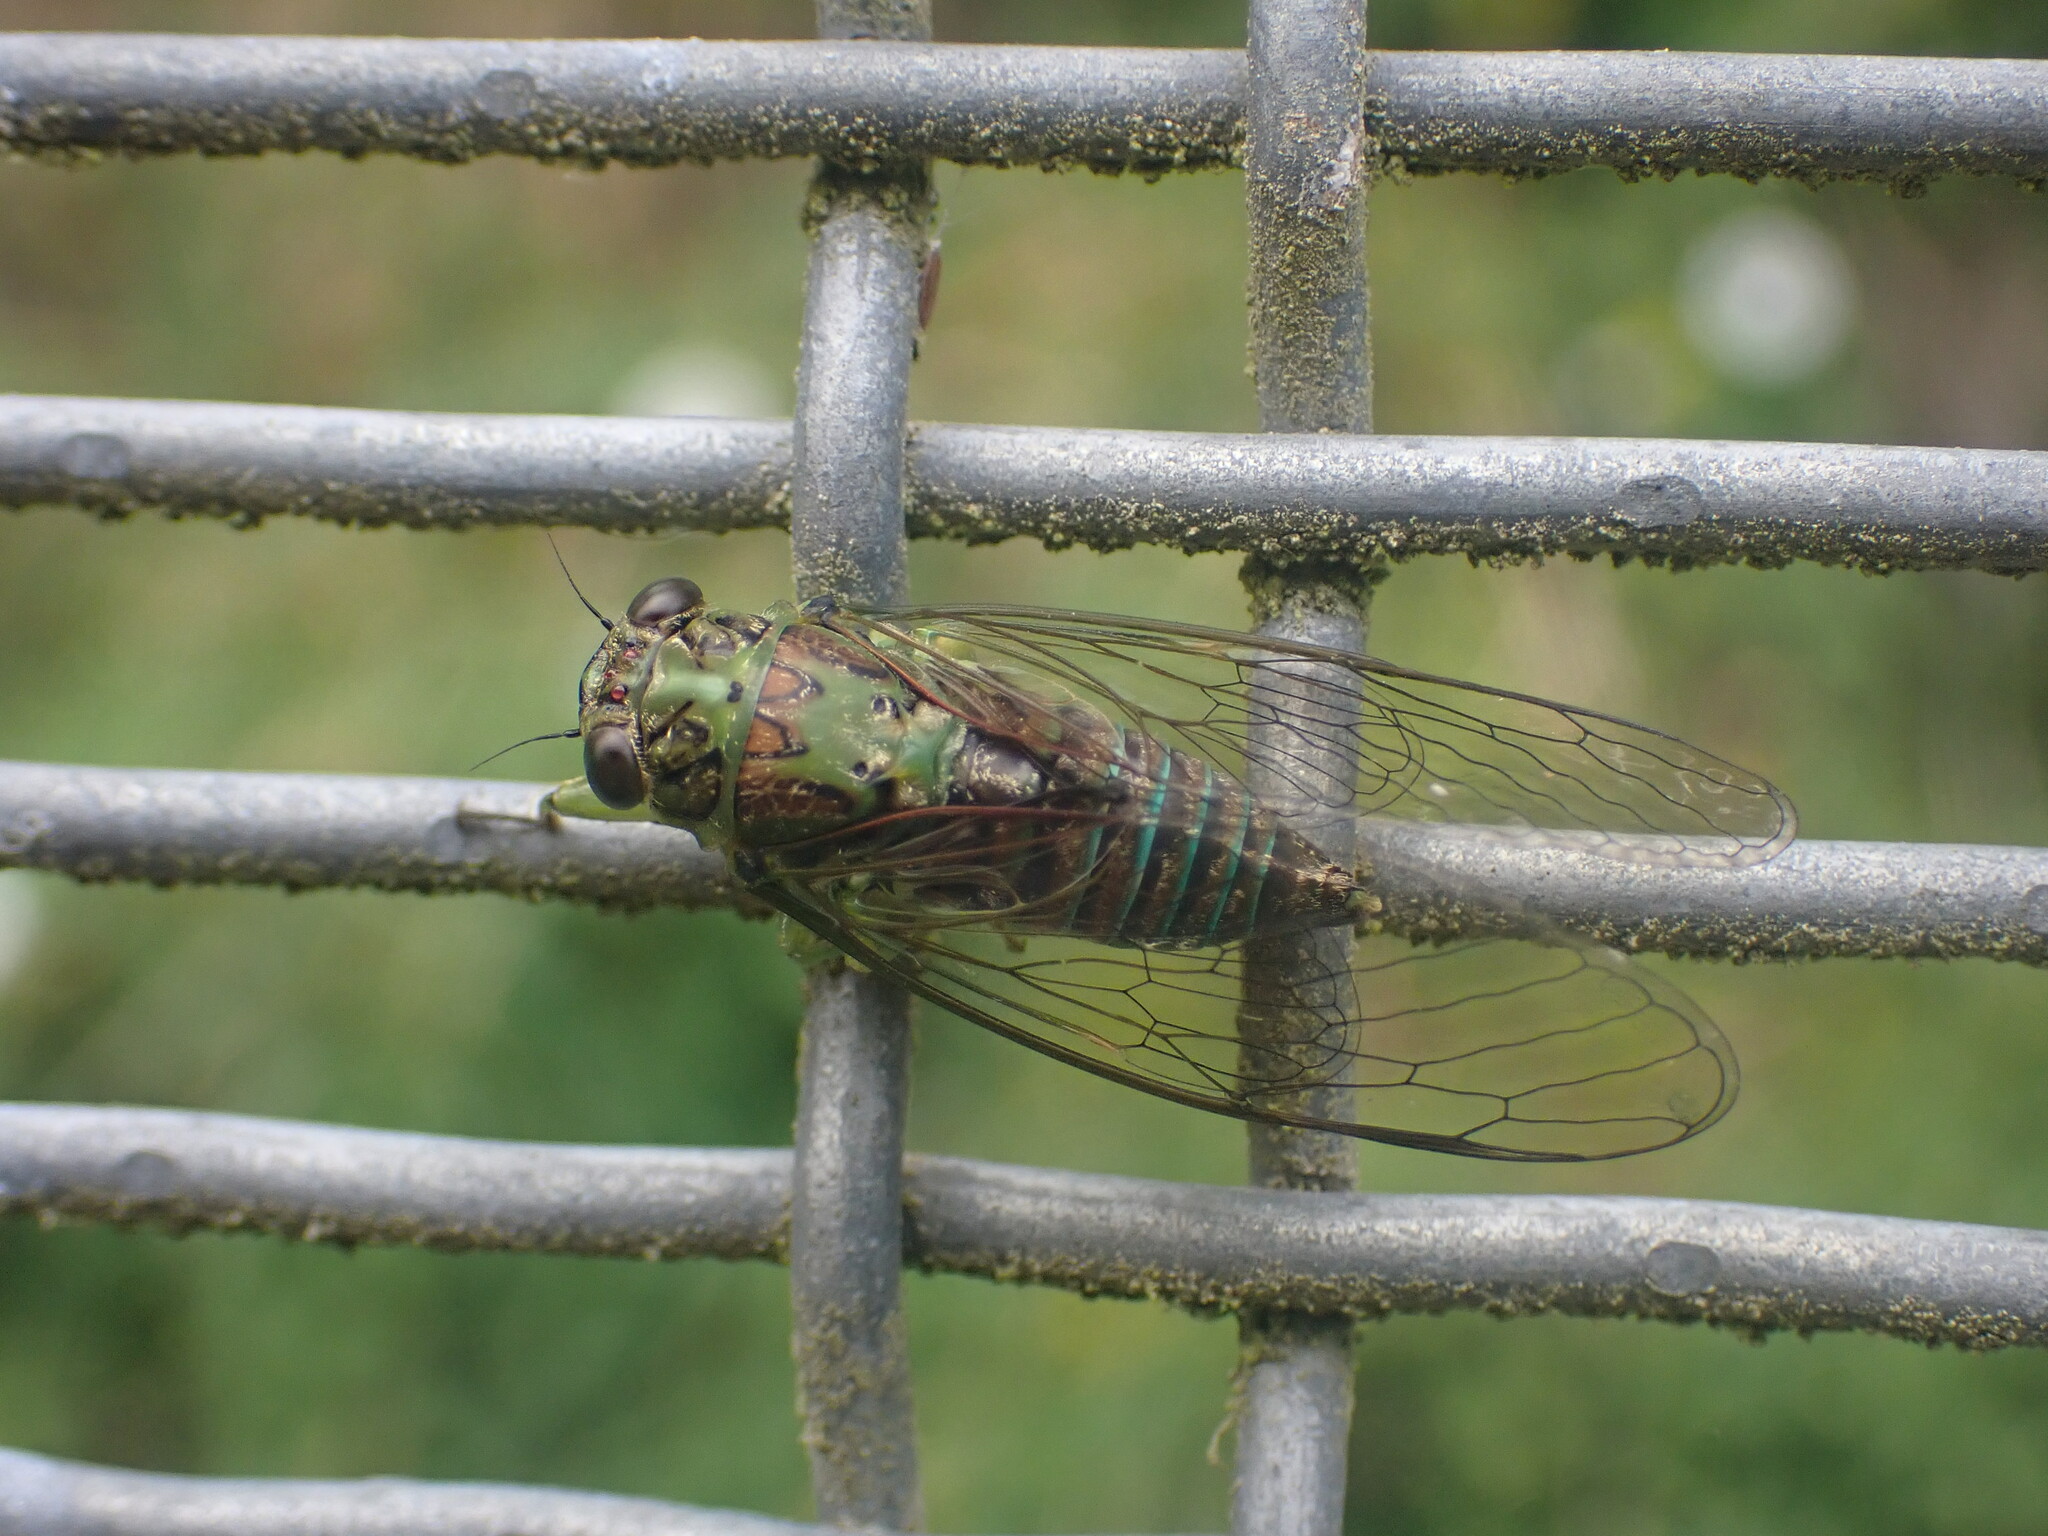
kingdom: Animalia
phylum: Arthropoda
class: Insecta
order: Hemiptera
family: Cicadidae
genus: Kikihia
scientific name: Kikihia scutellaris
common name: Lesser bronze cicada
